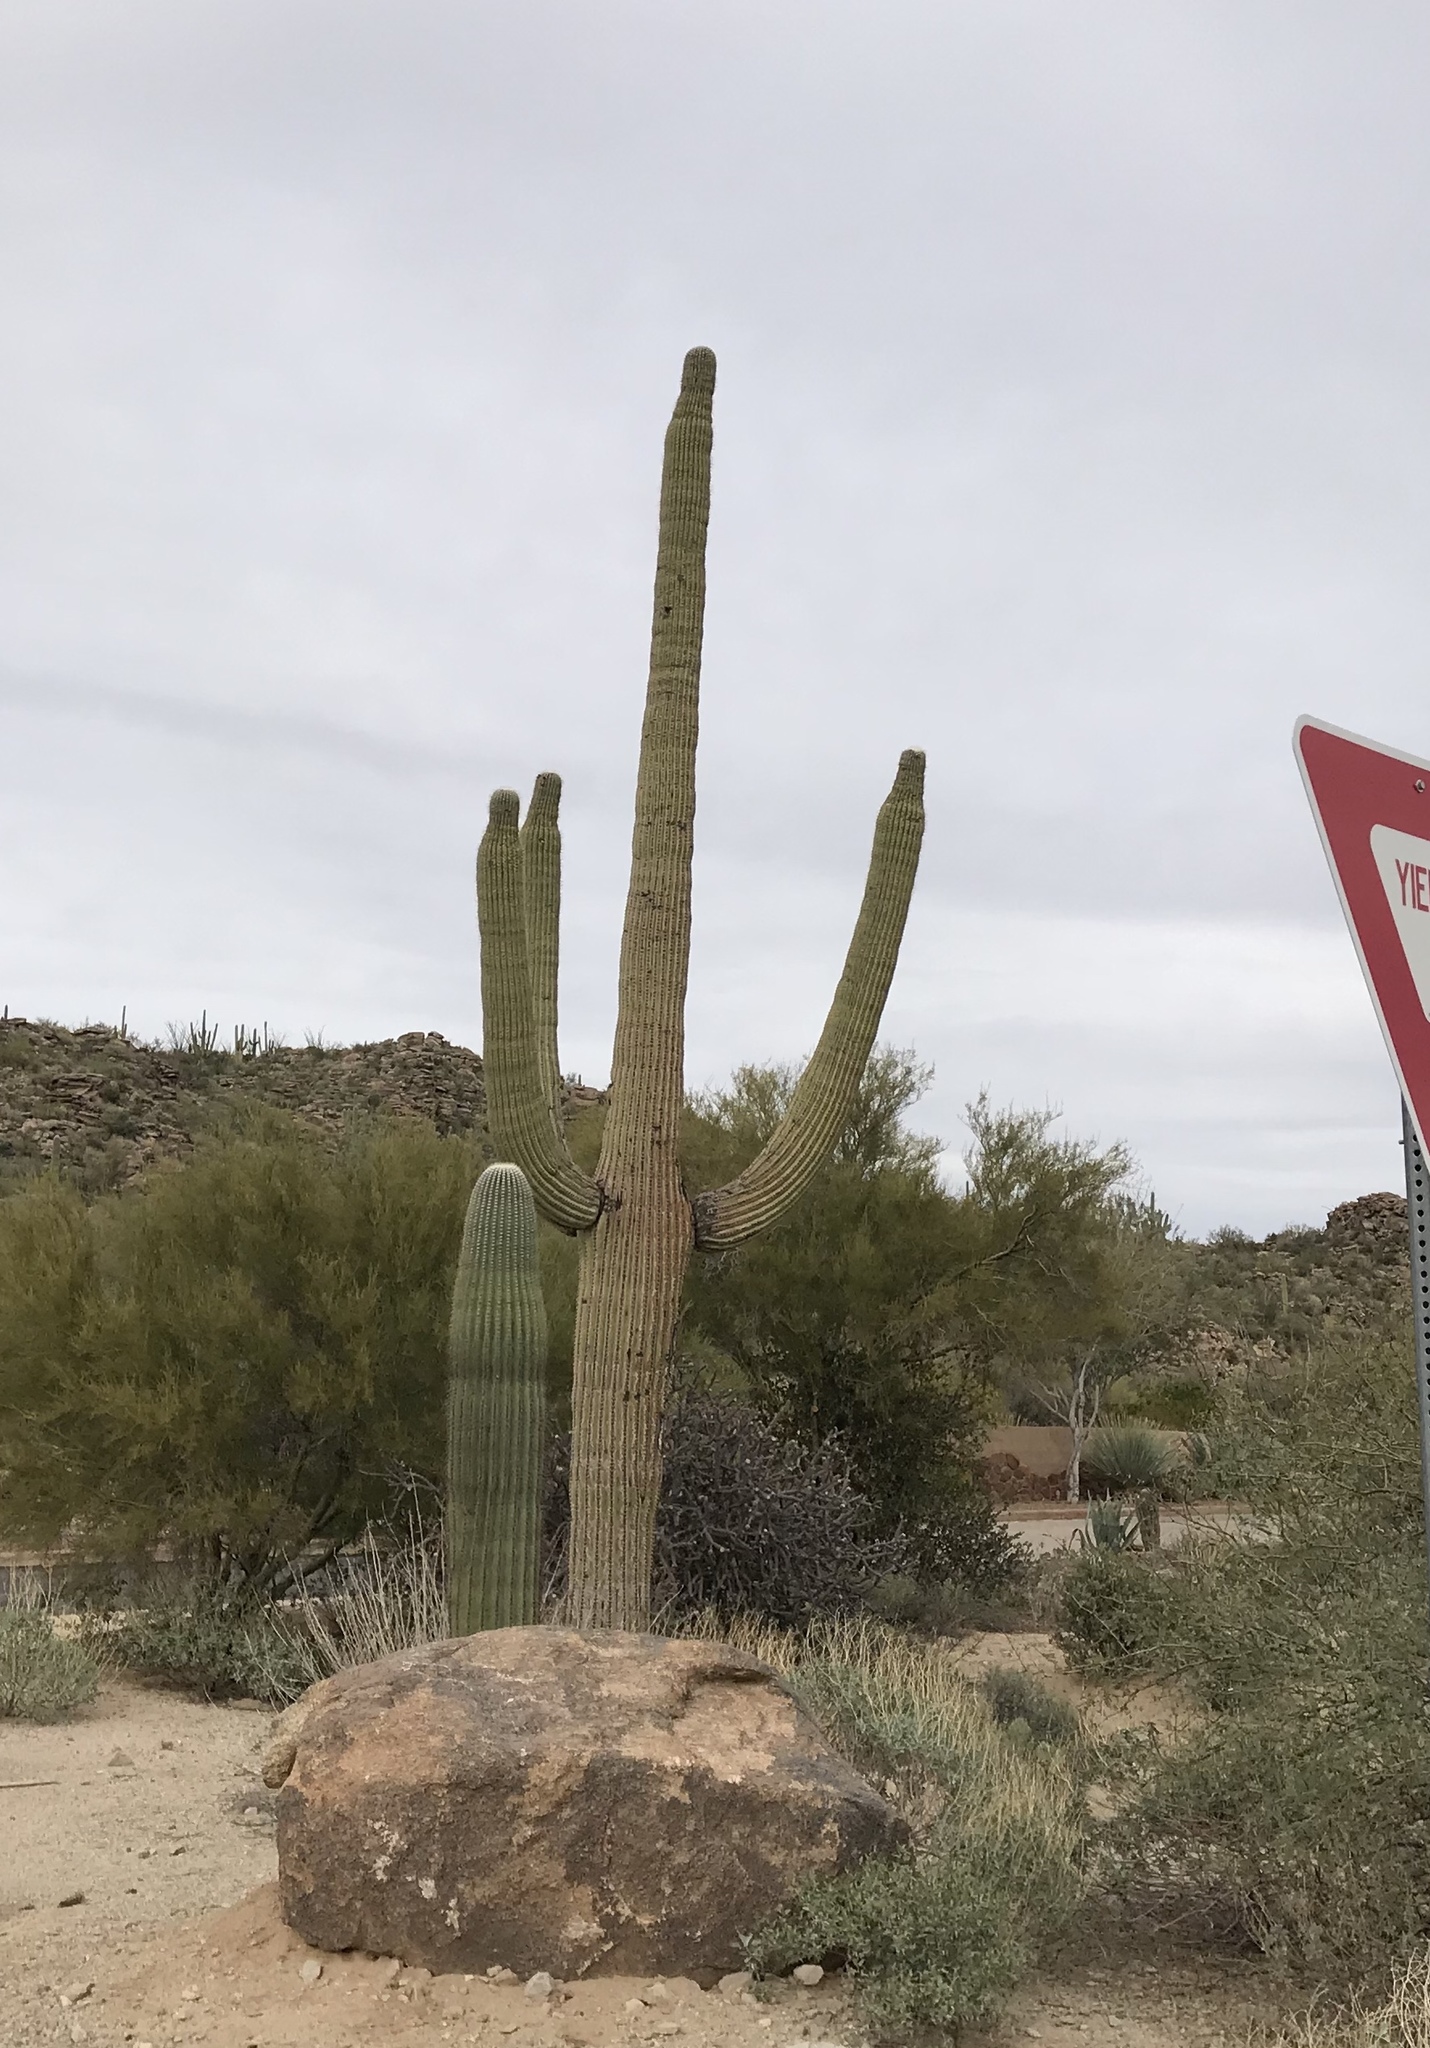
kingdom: Plantae
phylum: Tracheophyta
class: Magnoliopsida
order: Caryophyllales
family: Cactaceae
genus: Carnegiea
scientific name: Carnegiea gigantea
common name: Saguaro
